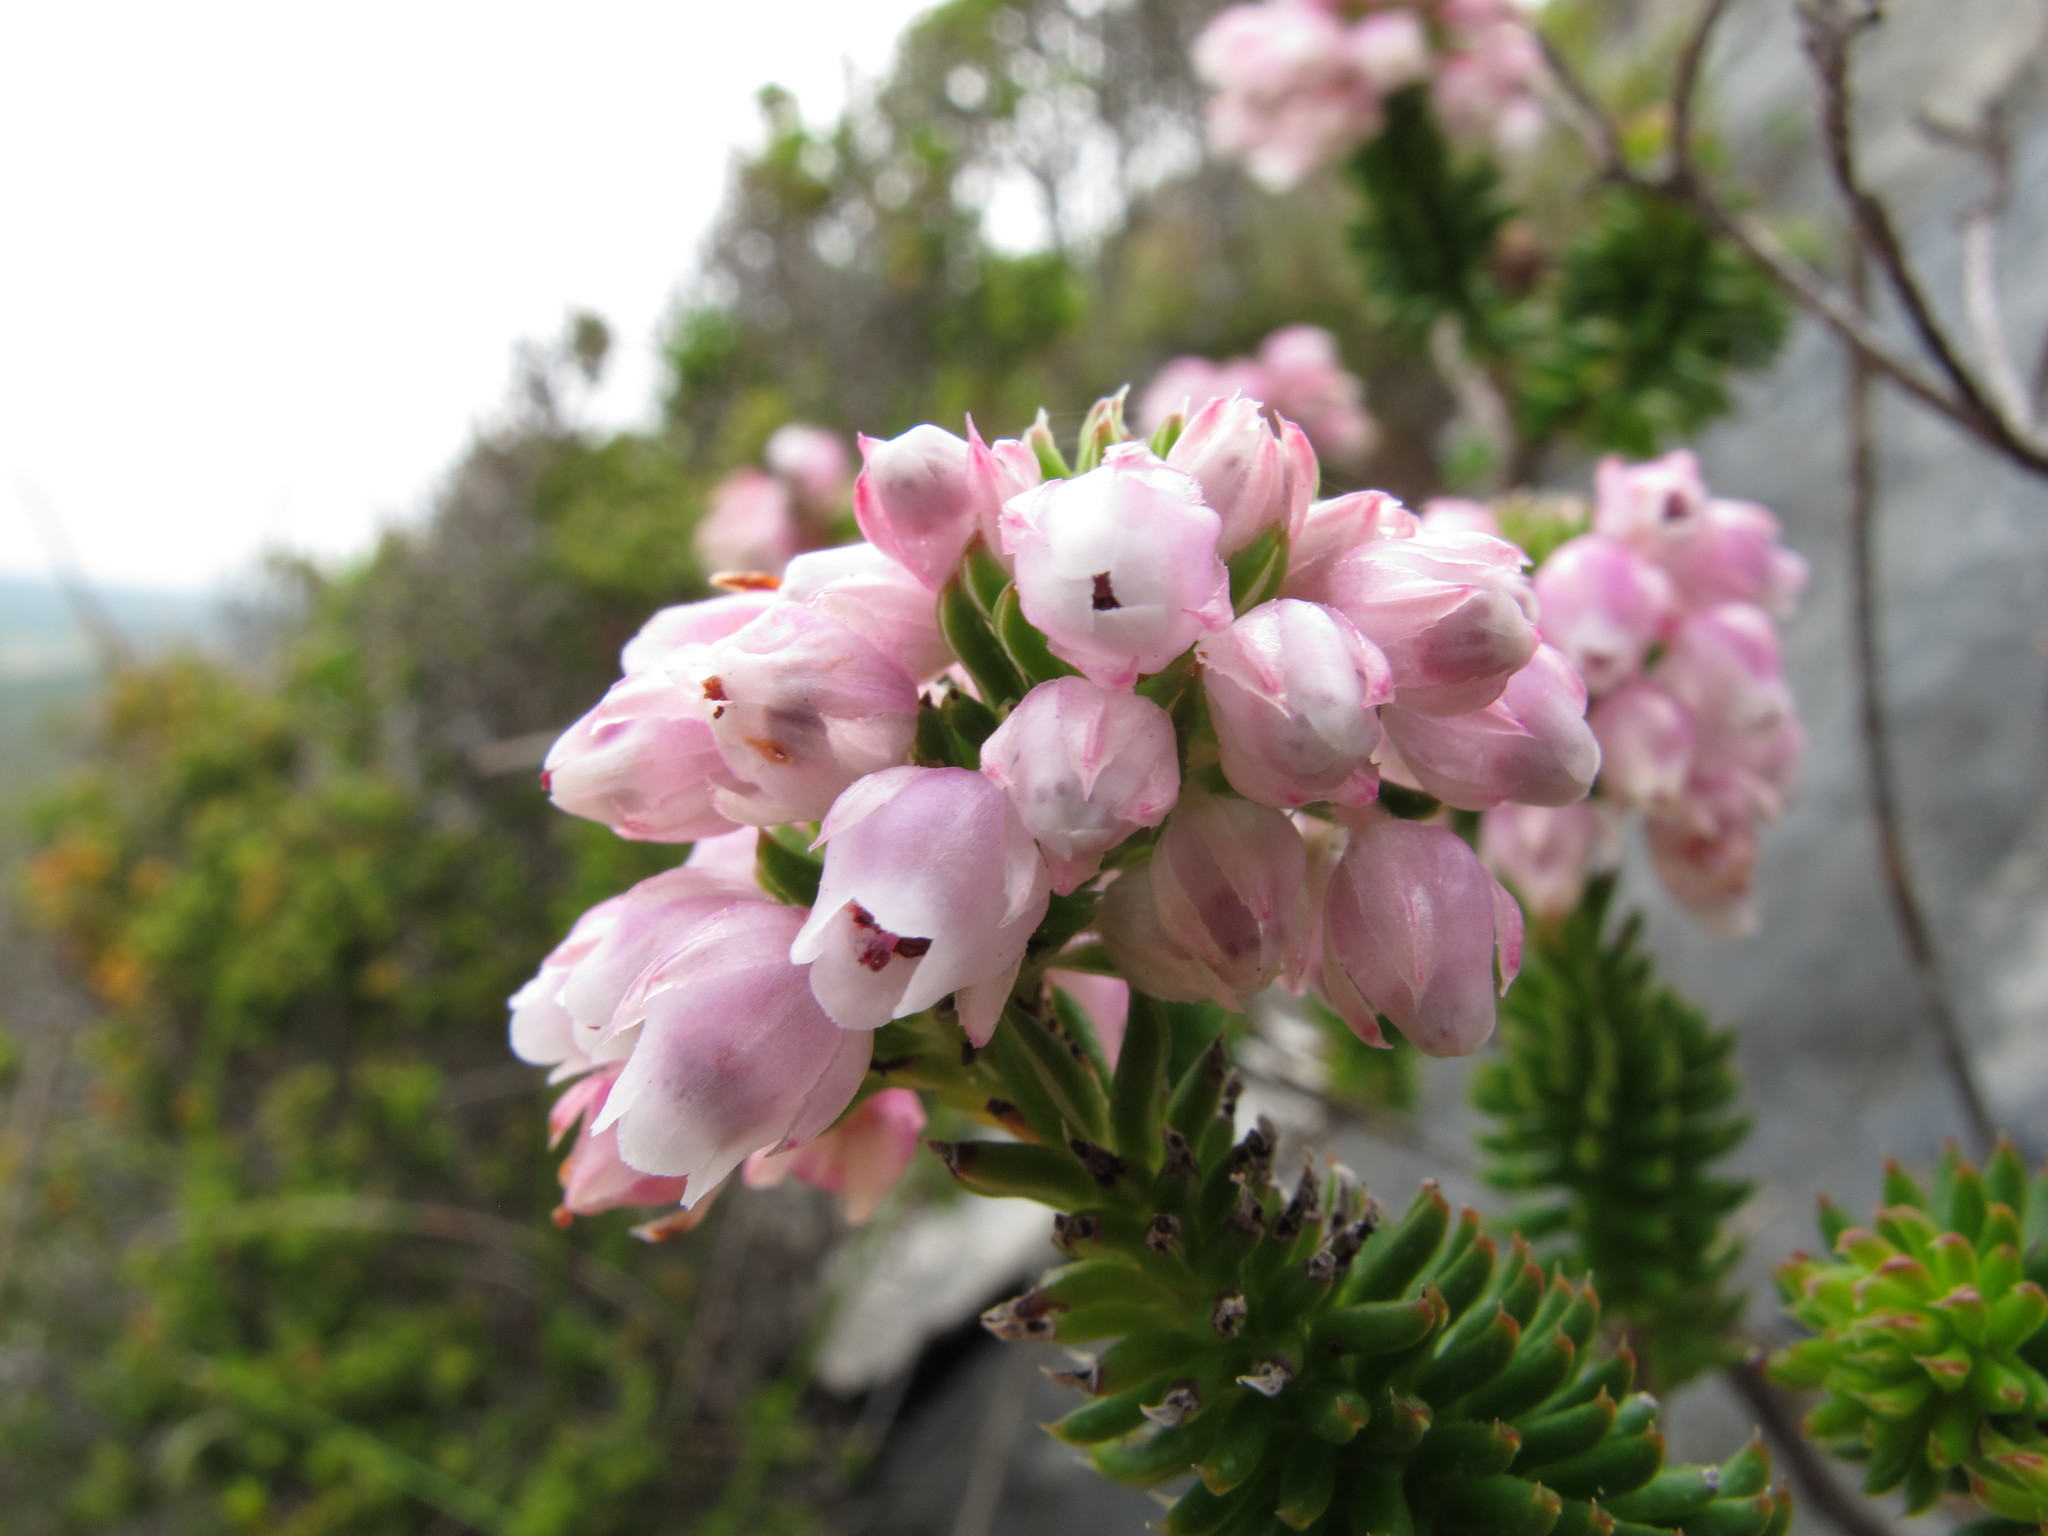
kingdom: Plantae
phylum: Tracheophyta
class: Magnoliopsida
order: Ericales
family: Ericaceae
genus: Erica
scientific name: Erica pulvinata
